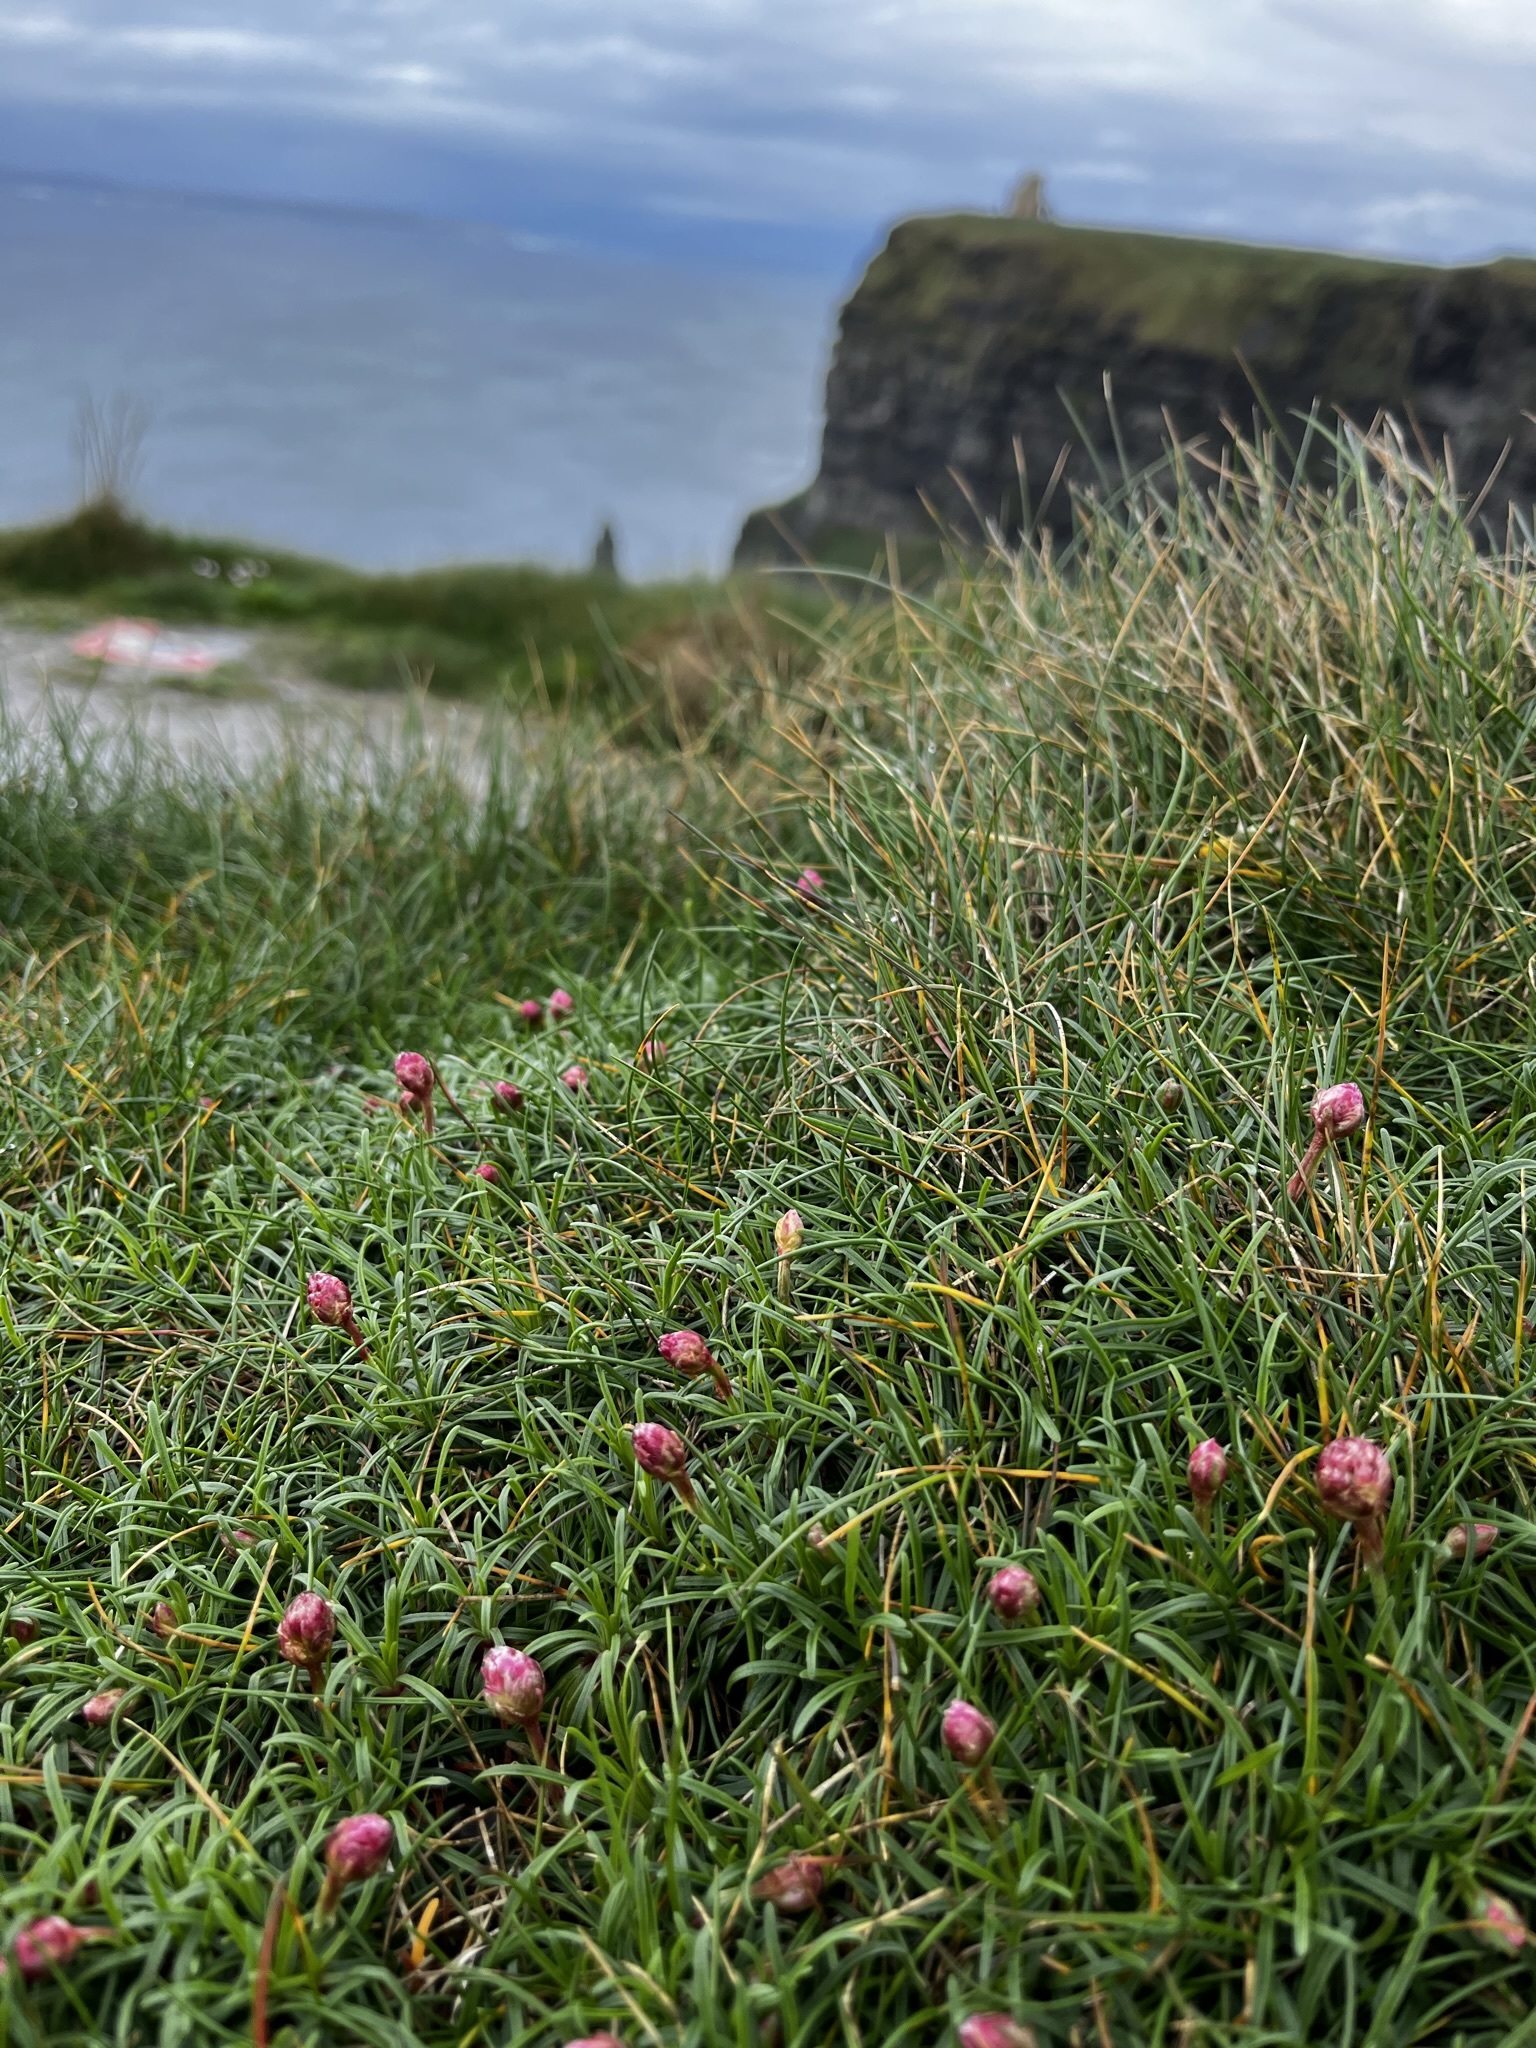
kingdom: Plantae
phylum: Tracheophyta
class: Magnoliopsida
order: Caryophyllales
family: Plumbaginaceae
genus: Armeria
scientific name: Armeria maritima
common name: Thrift
